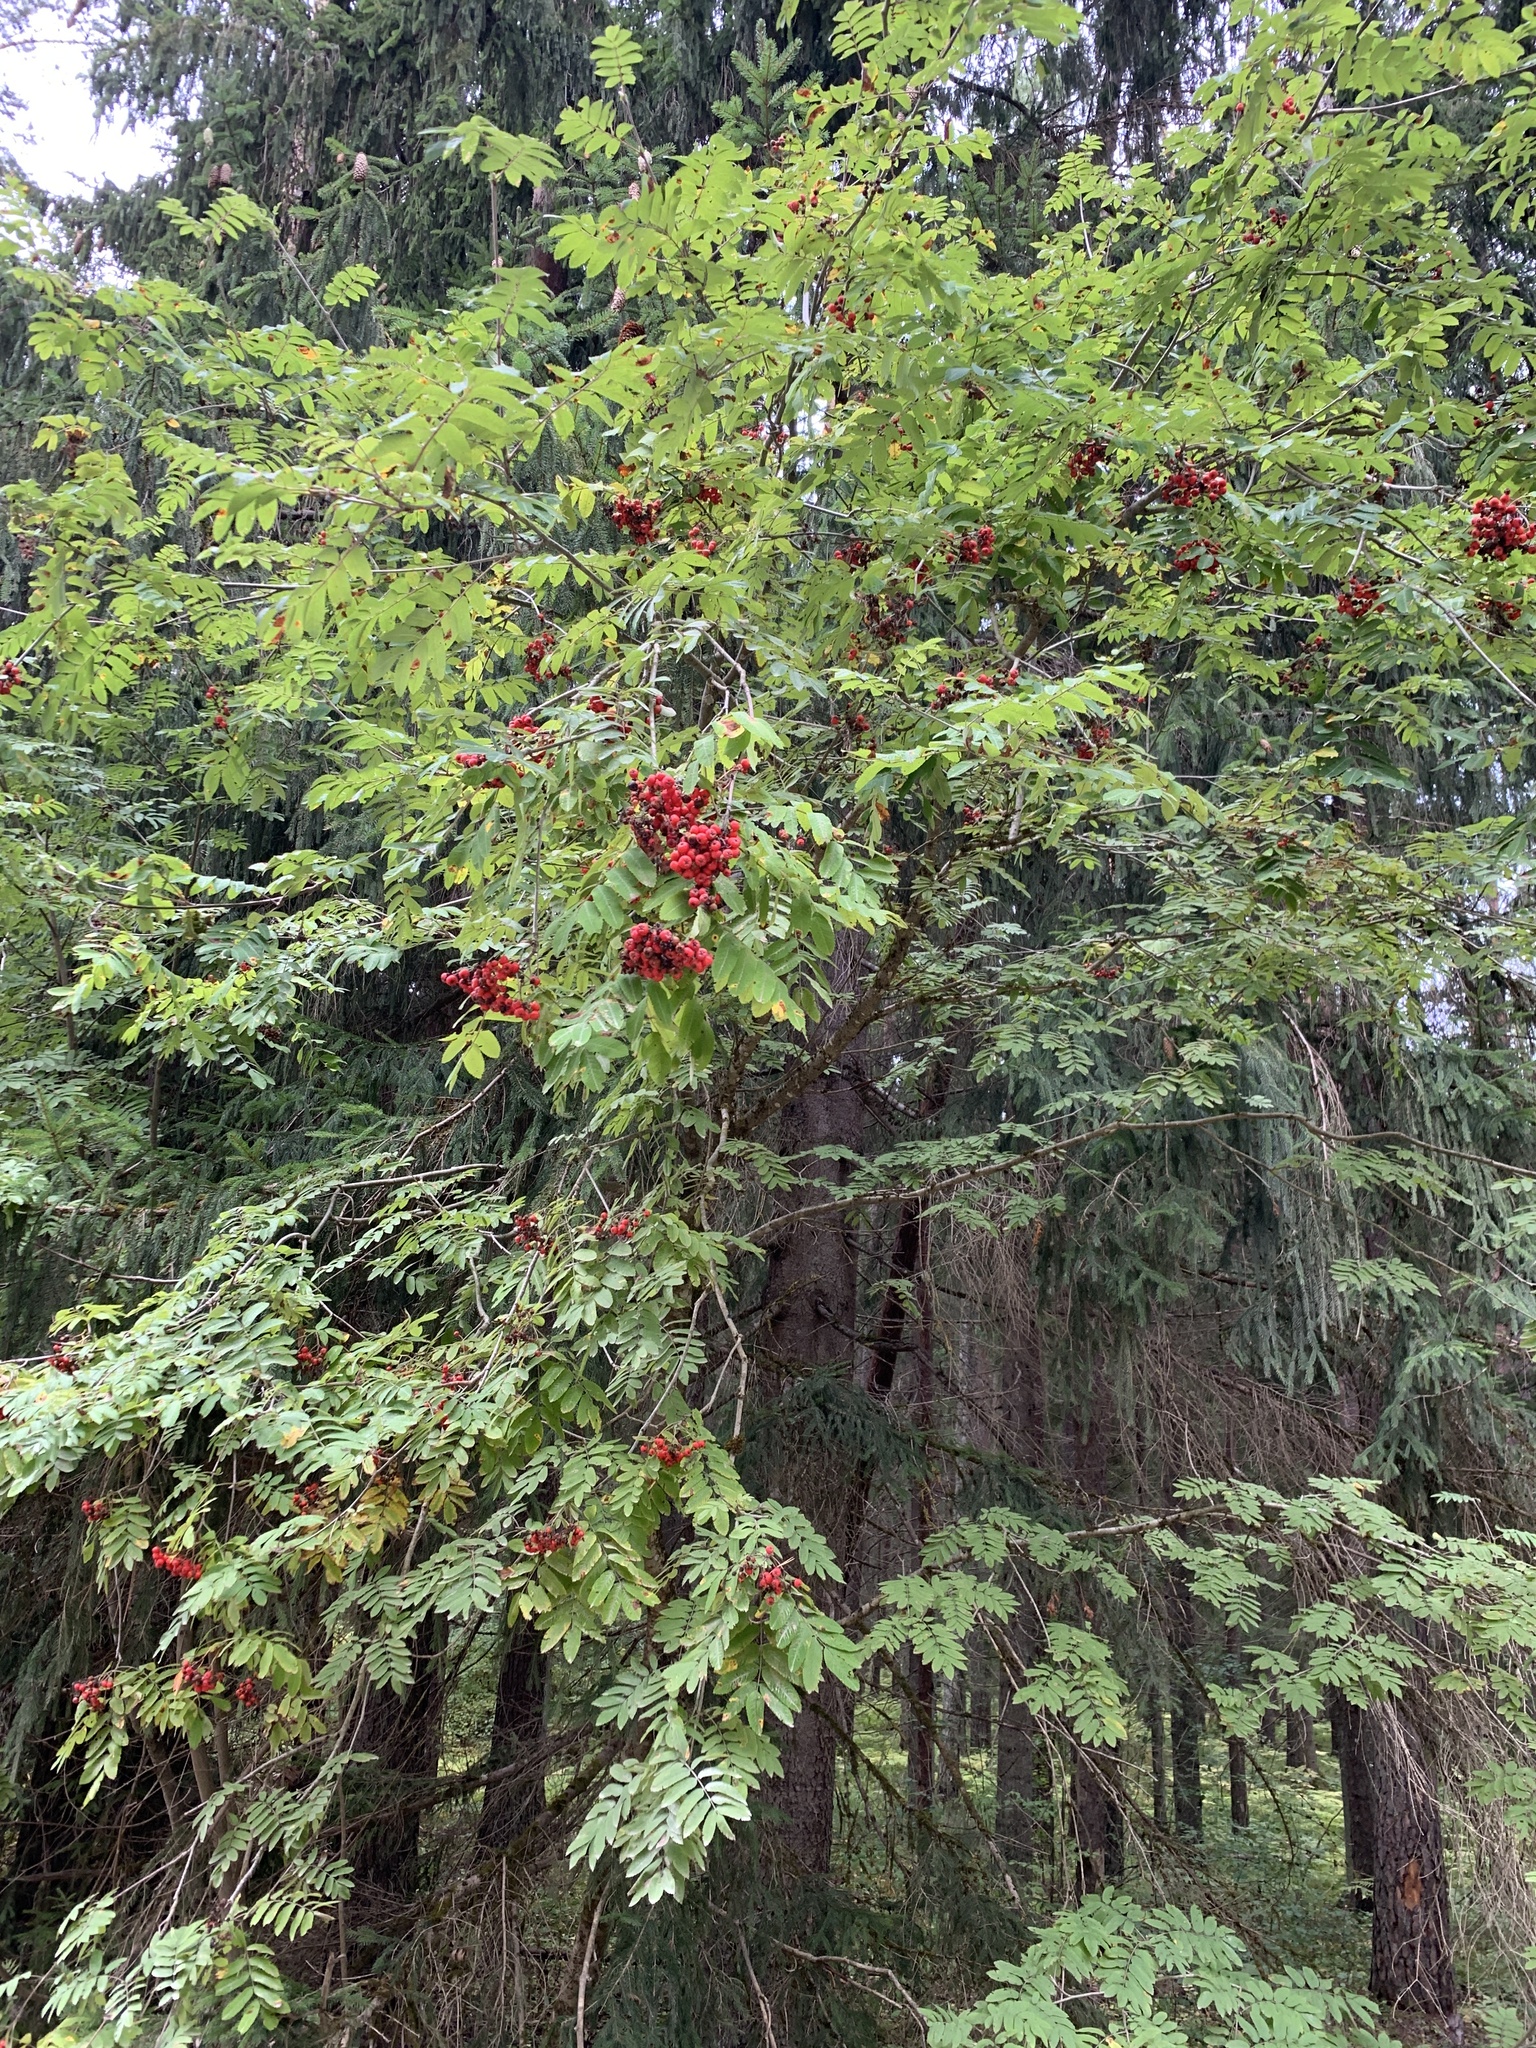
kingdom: Plantae
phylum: Tracheophyta
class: Magnoliopsida
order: Rosales
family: Rosaceae
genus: Sorbus
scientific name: Sorbus aucuparia
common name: Rowan
